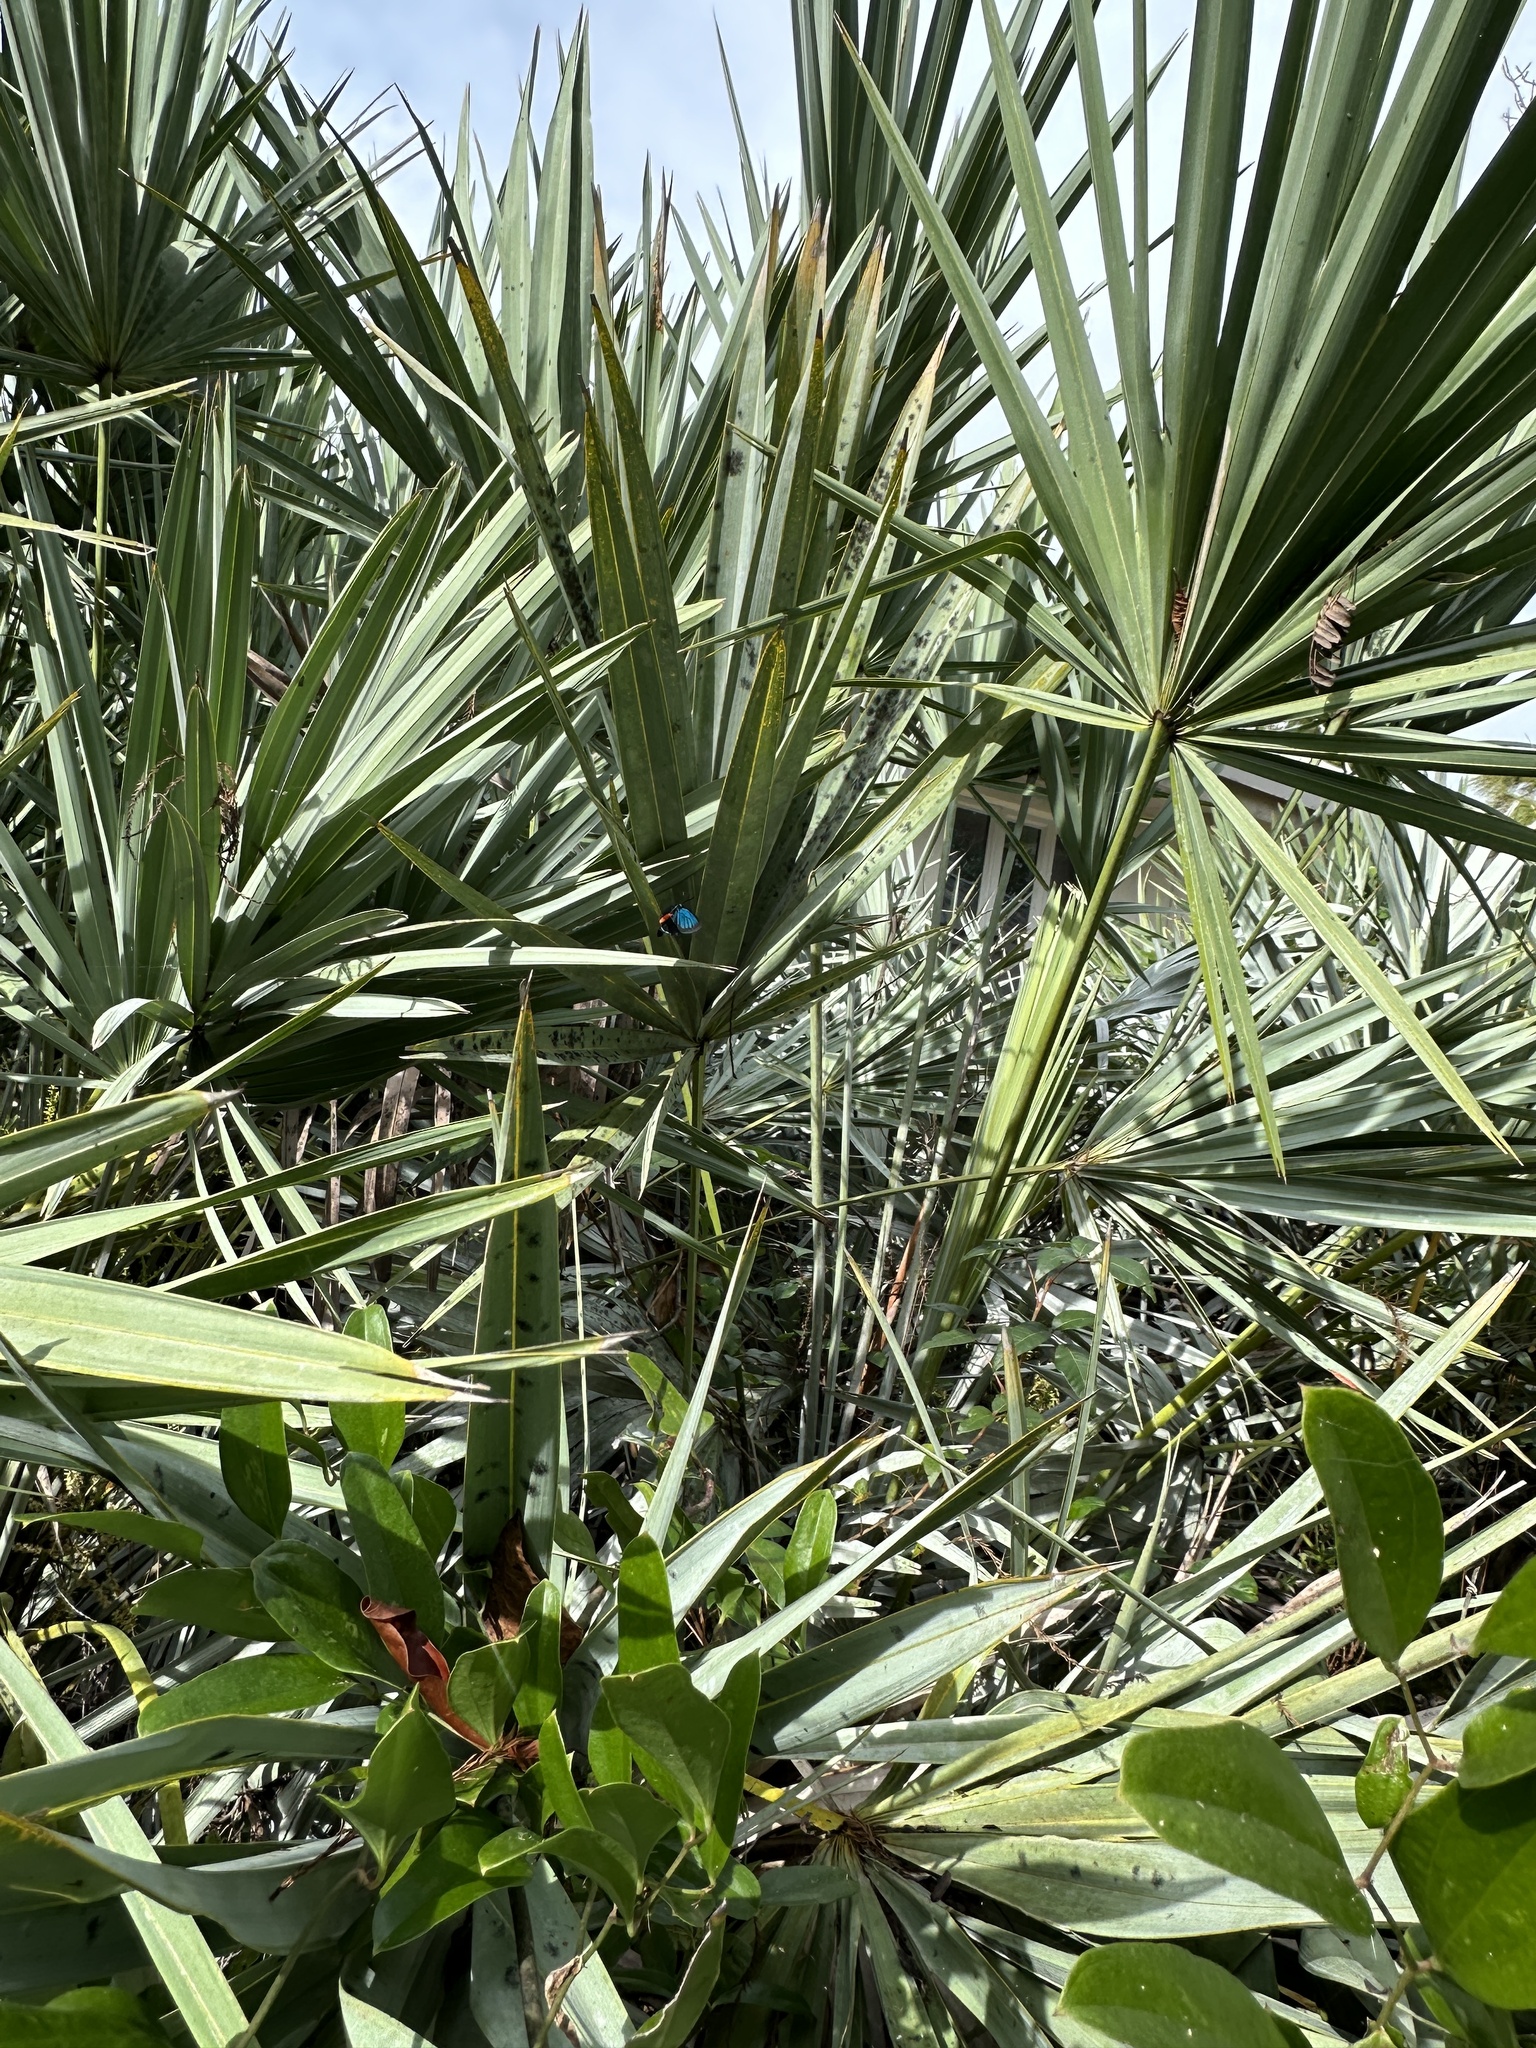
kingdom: Plantae
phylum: Tracheophyta
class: Liliopsida
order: Arecales
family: Arecaceae
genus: Serenoa
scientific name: Serenoa repens
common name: Saw-palmetto
